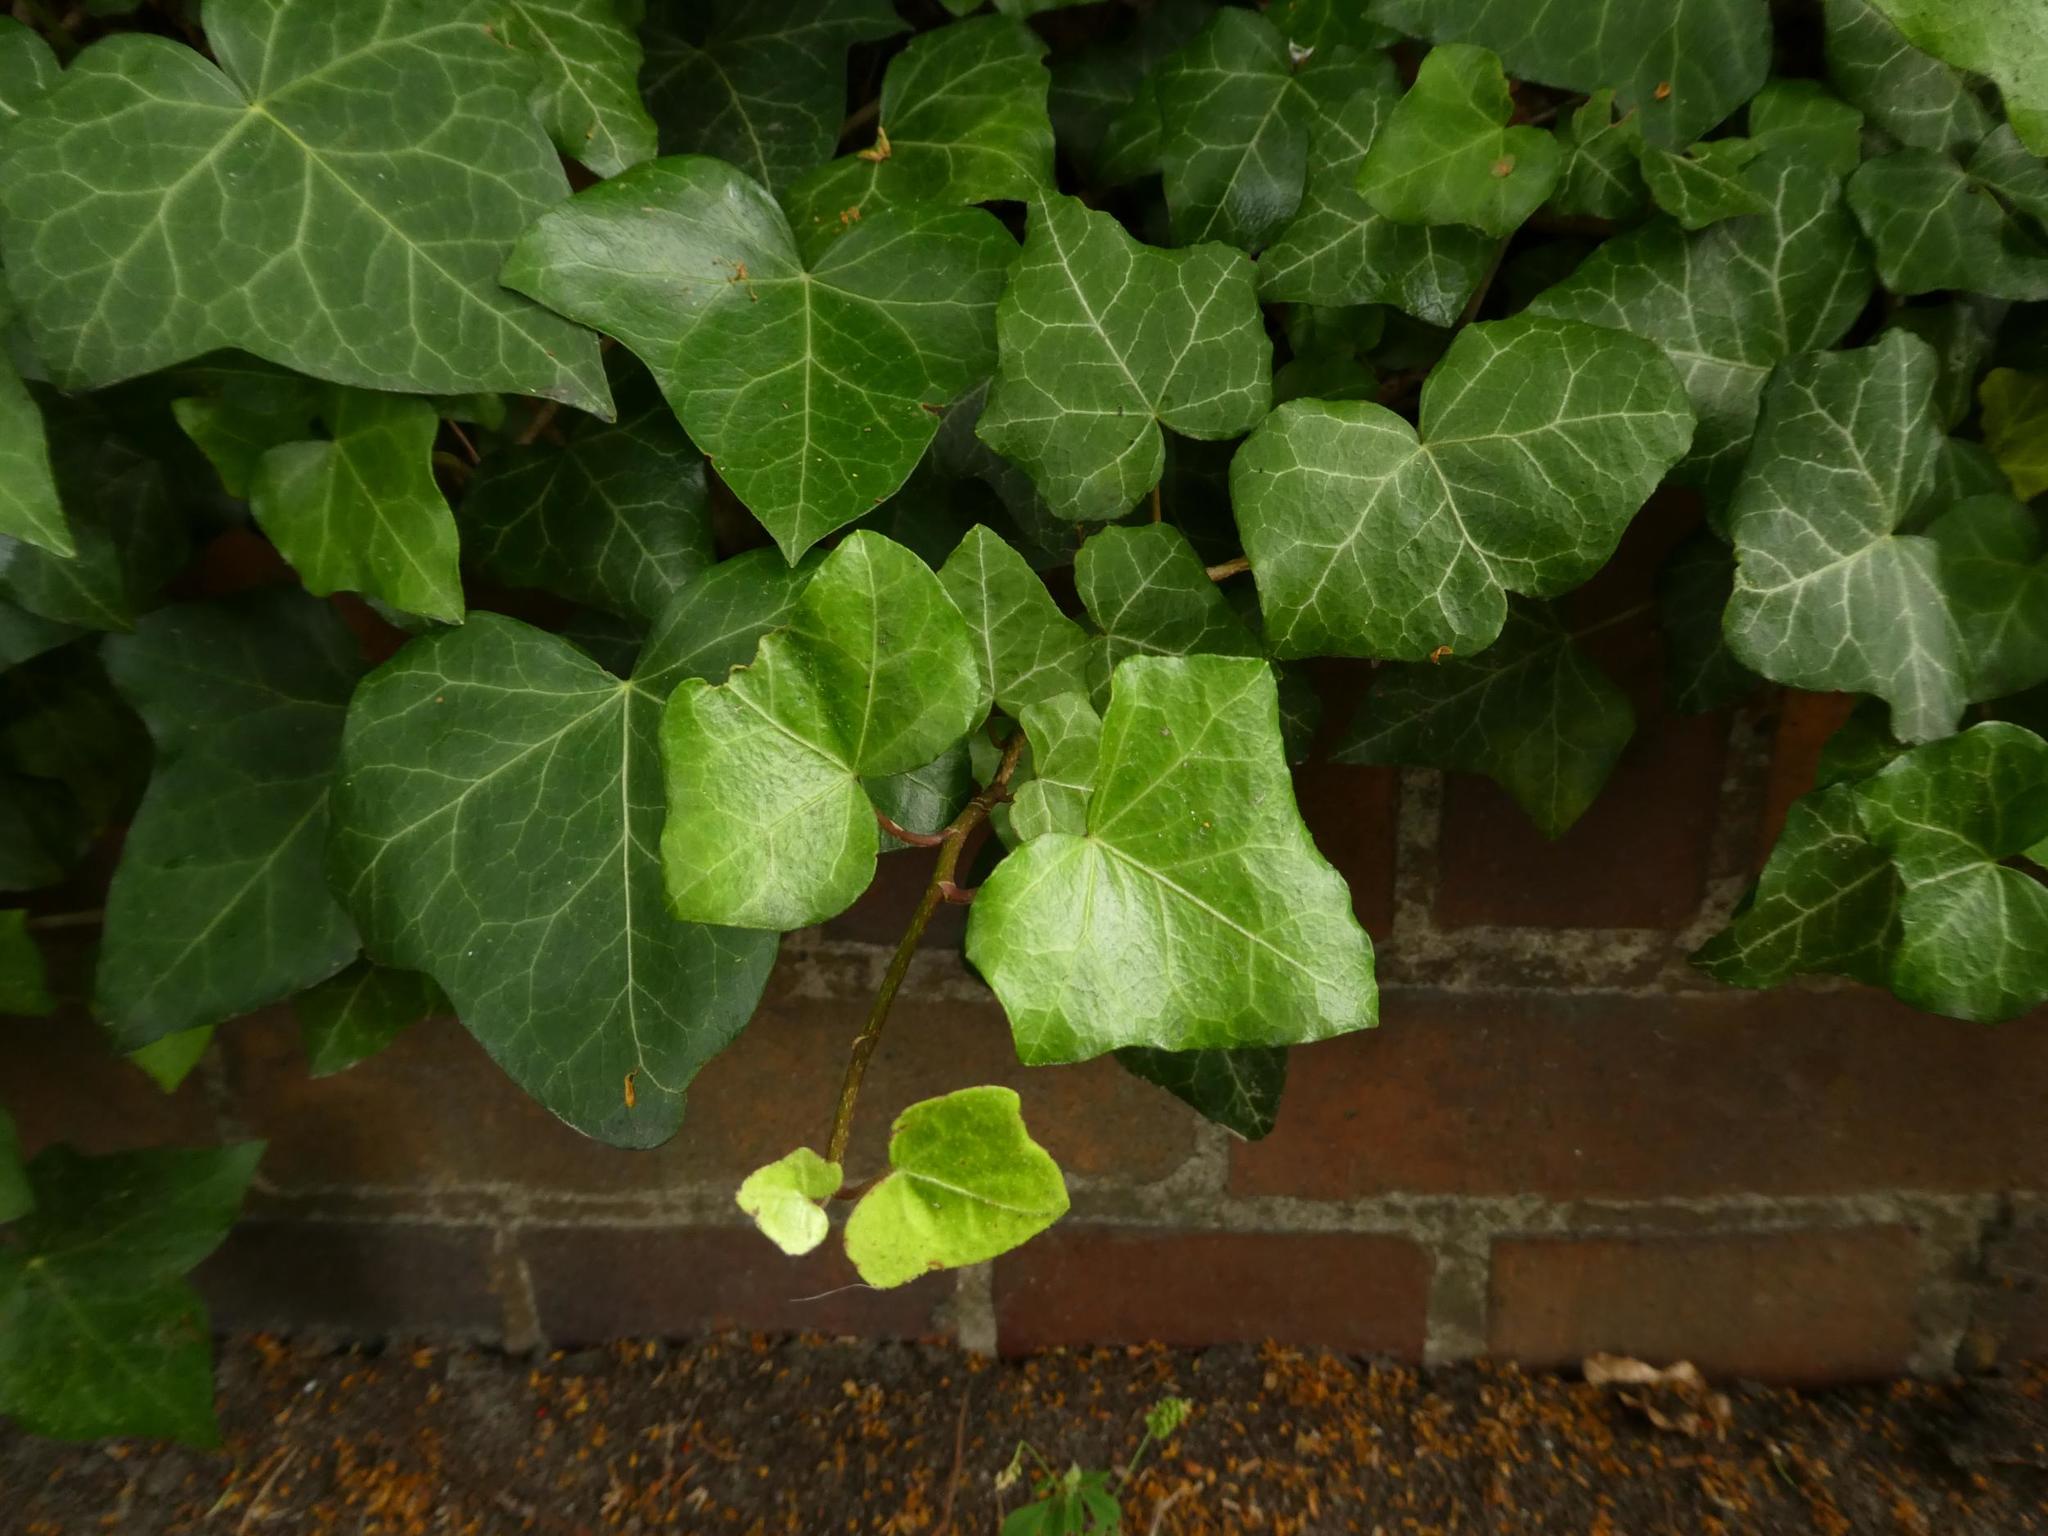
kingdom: Plantae
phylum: Tracheophyta
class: Magnoliopsida
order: Apiales
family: Araliaceae
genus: Hedera
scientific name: Hedera helix
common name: Ivy
